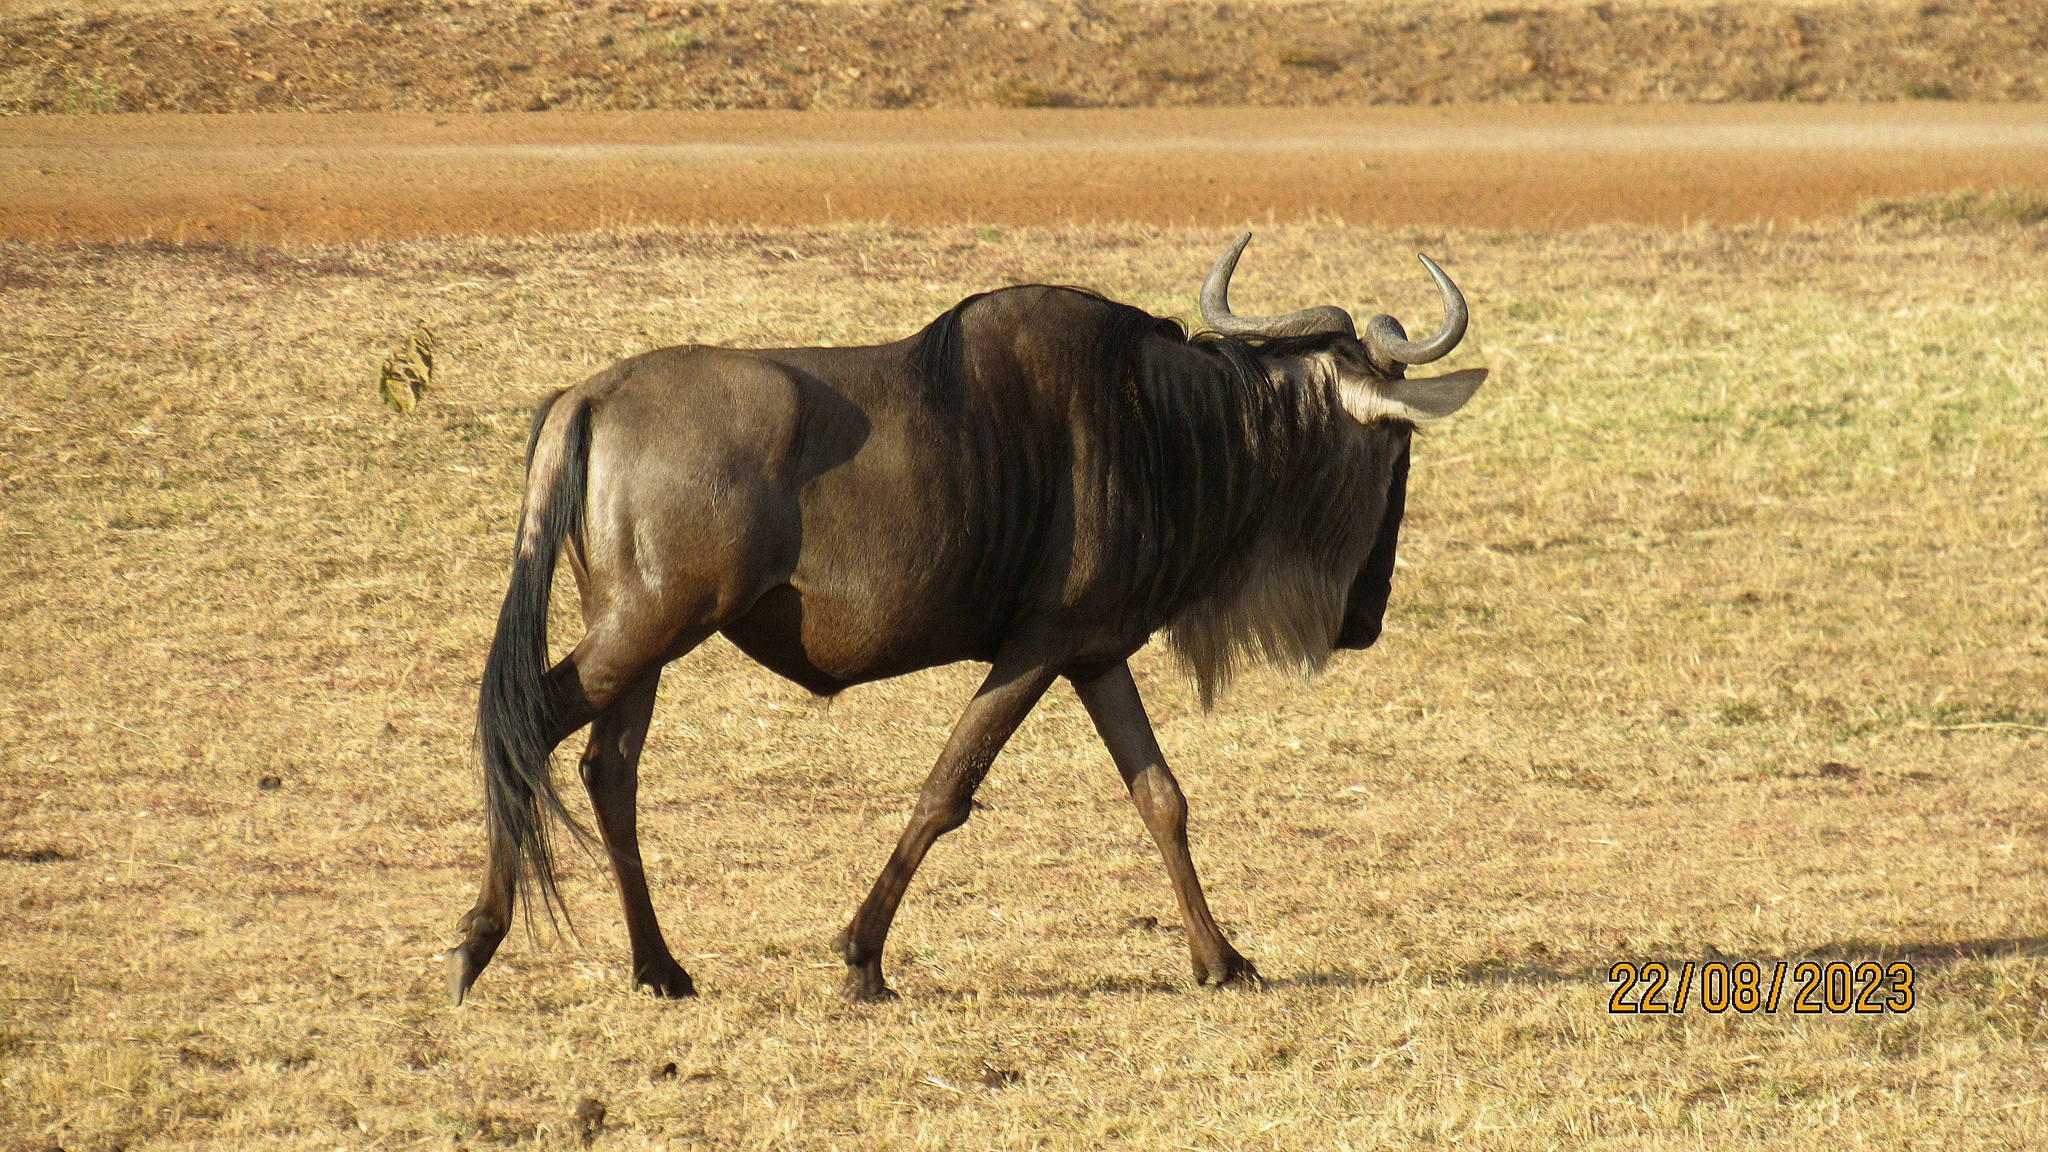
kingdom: Animalia
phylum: Chordata
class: Mammalia
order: Artiodactyla
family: Bovidae
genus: Connochaetes
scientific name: Connochaetes taurinus
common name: Blue wildebeest
